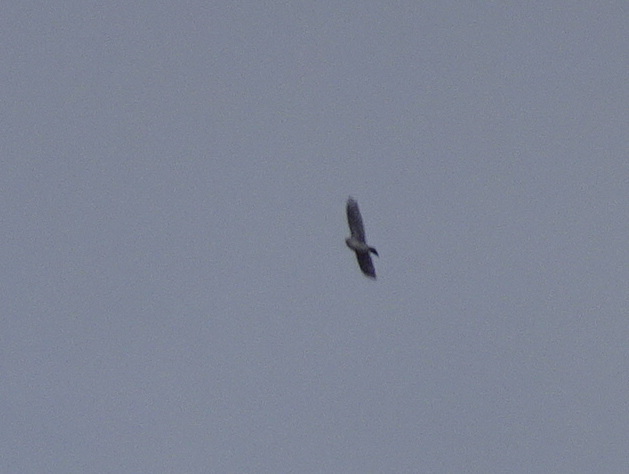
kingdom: Animalia
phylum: Chordata
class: Aves
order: Accipitriformes
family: Accipitridae
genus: Buteo
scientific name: Buteo jamaicensis
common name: Red-tailed hawk
